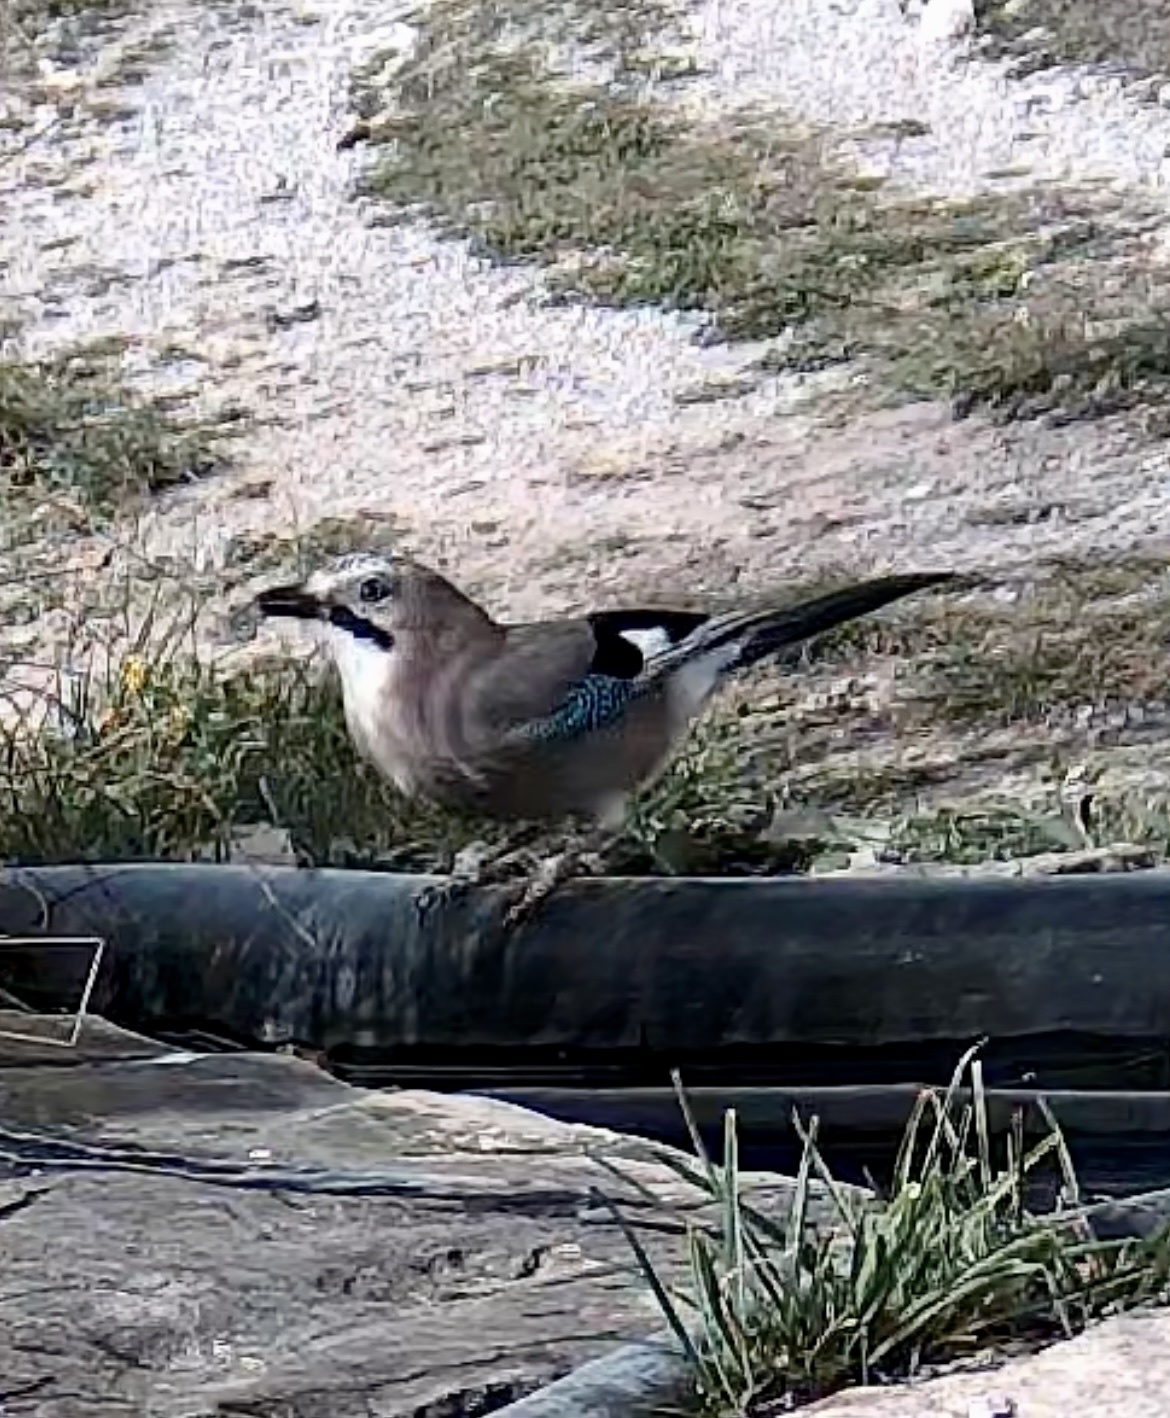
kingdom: Animalia
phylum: Chordata
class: Aves
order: Passeriformes
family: Corvidae
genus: Garrulus
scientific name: Garrulus glandarius
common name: Eurasian jay
